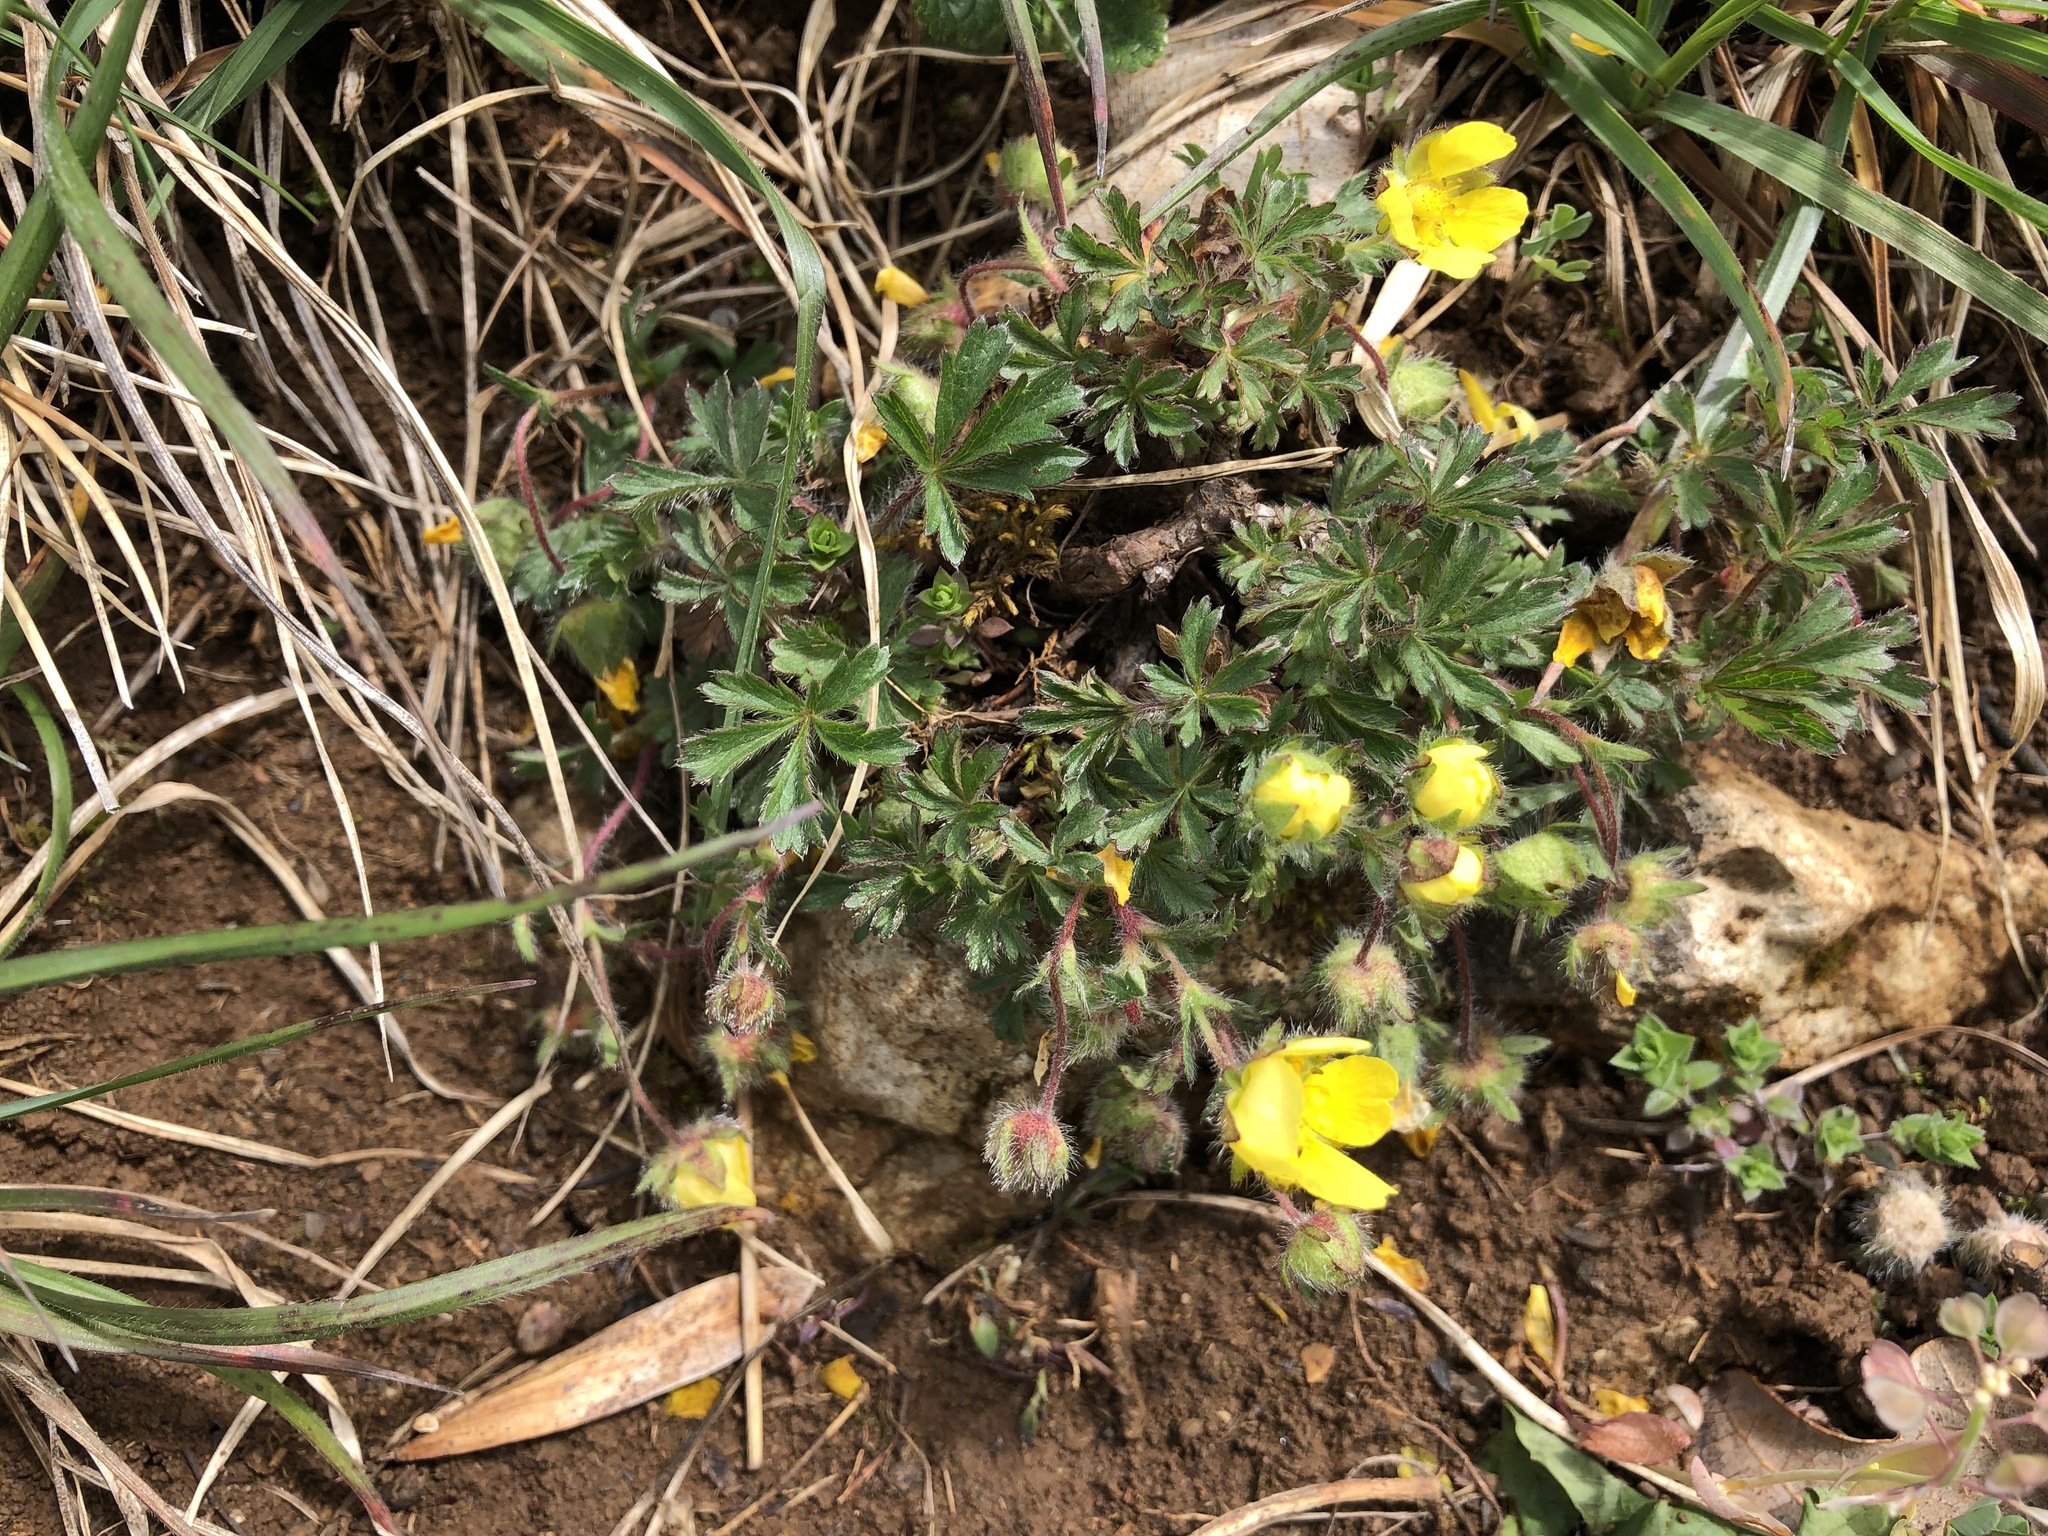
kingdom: Plantae
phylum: Tracheophyta
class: Magnoliopsida
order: Rosales
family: Rosaceae
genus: Potentilla
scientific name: Potentilla verna
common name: Spring cinquefoil
